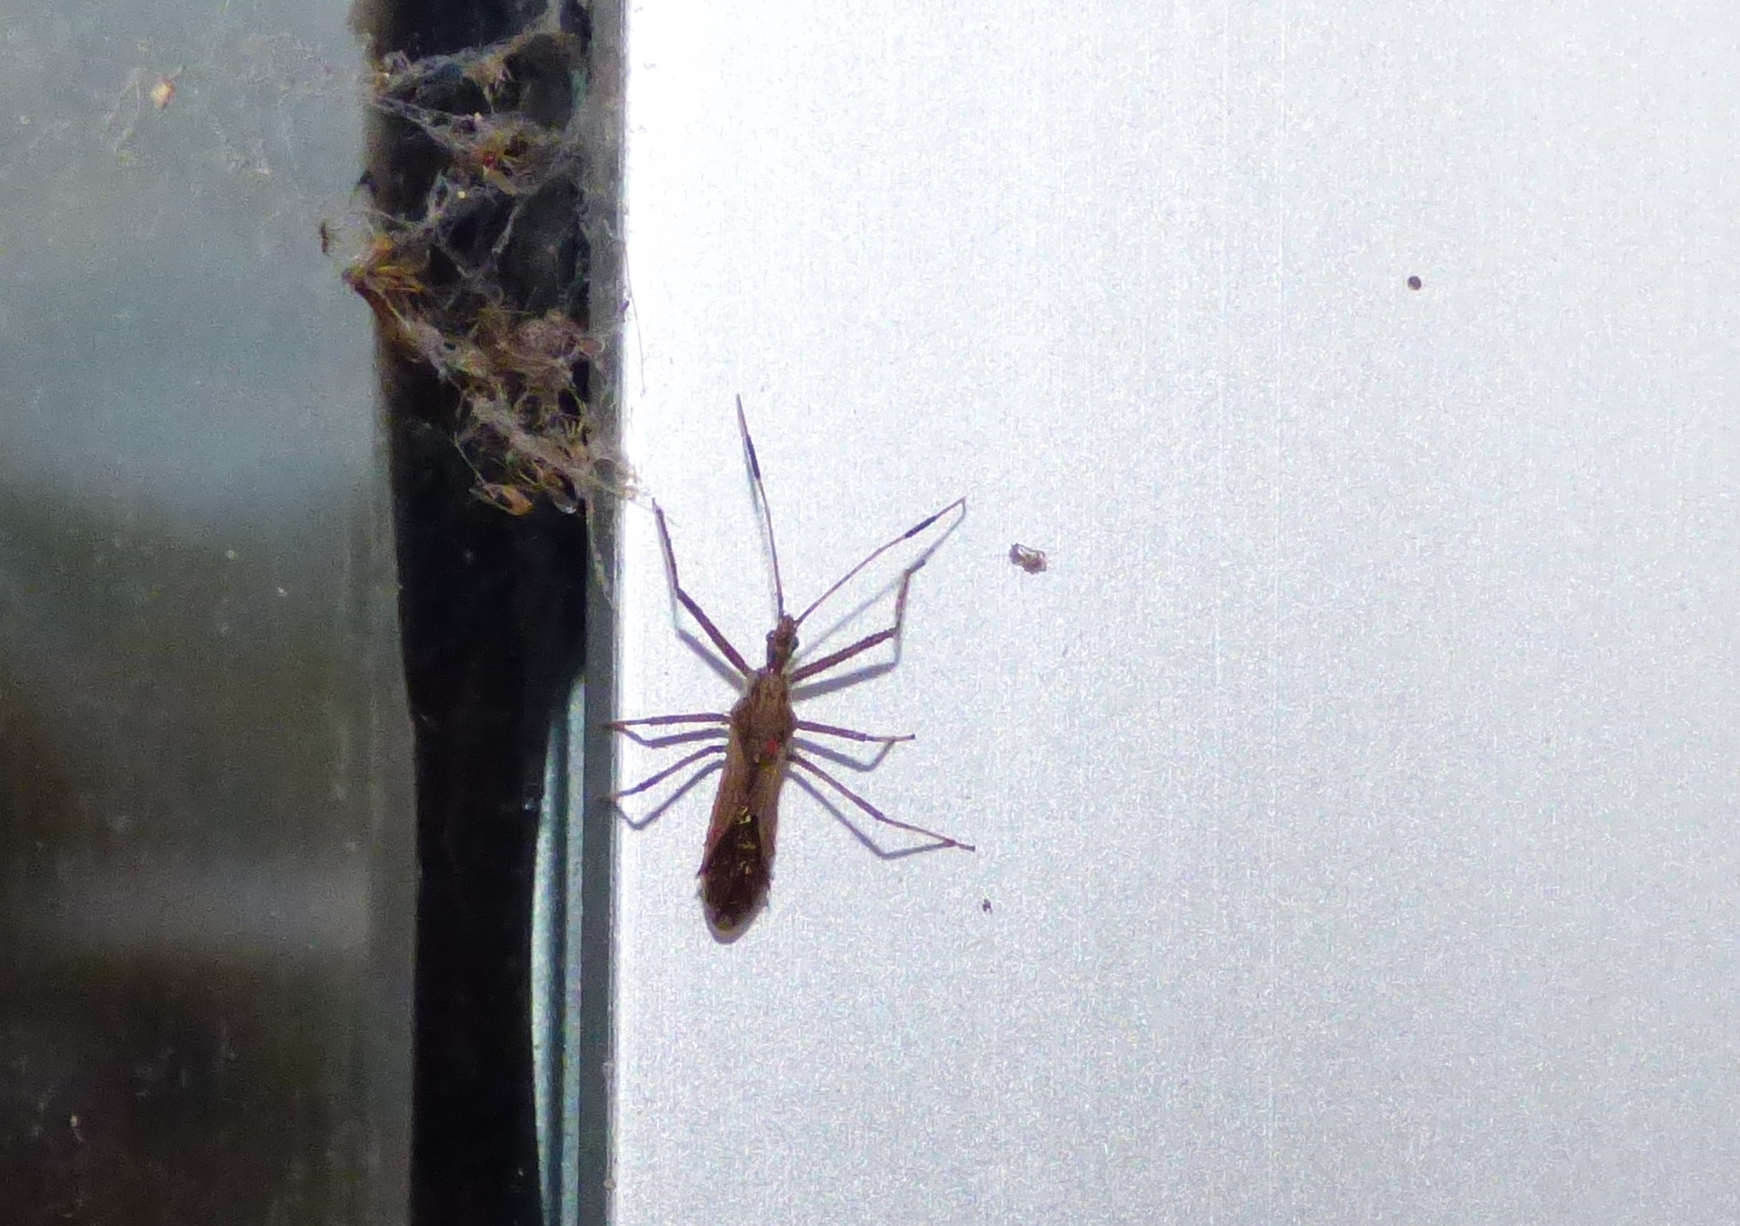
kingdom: Animalia
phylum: Arthropoda
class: Insecta
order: Hemiptera
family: Reduviidae
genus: Atrachelus
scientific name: Atrachelus cinereus
